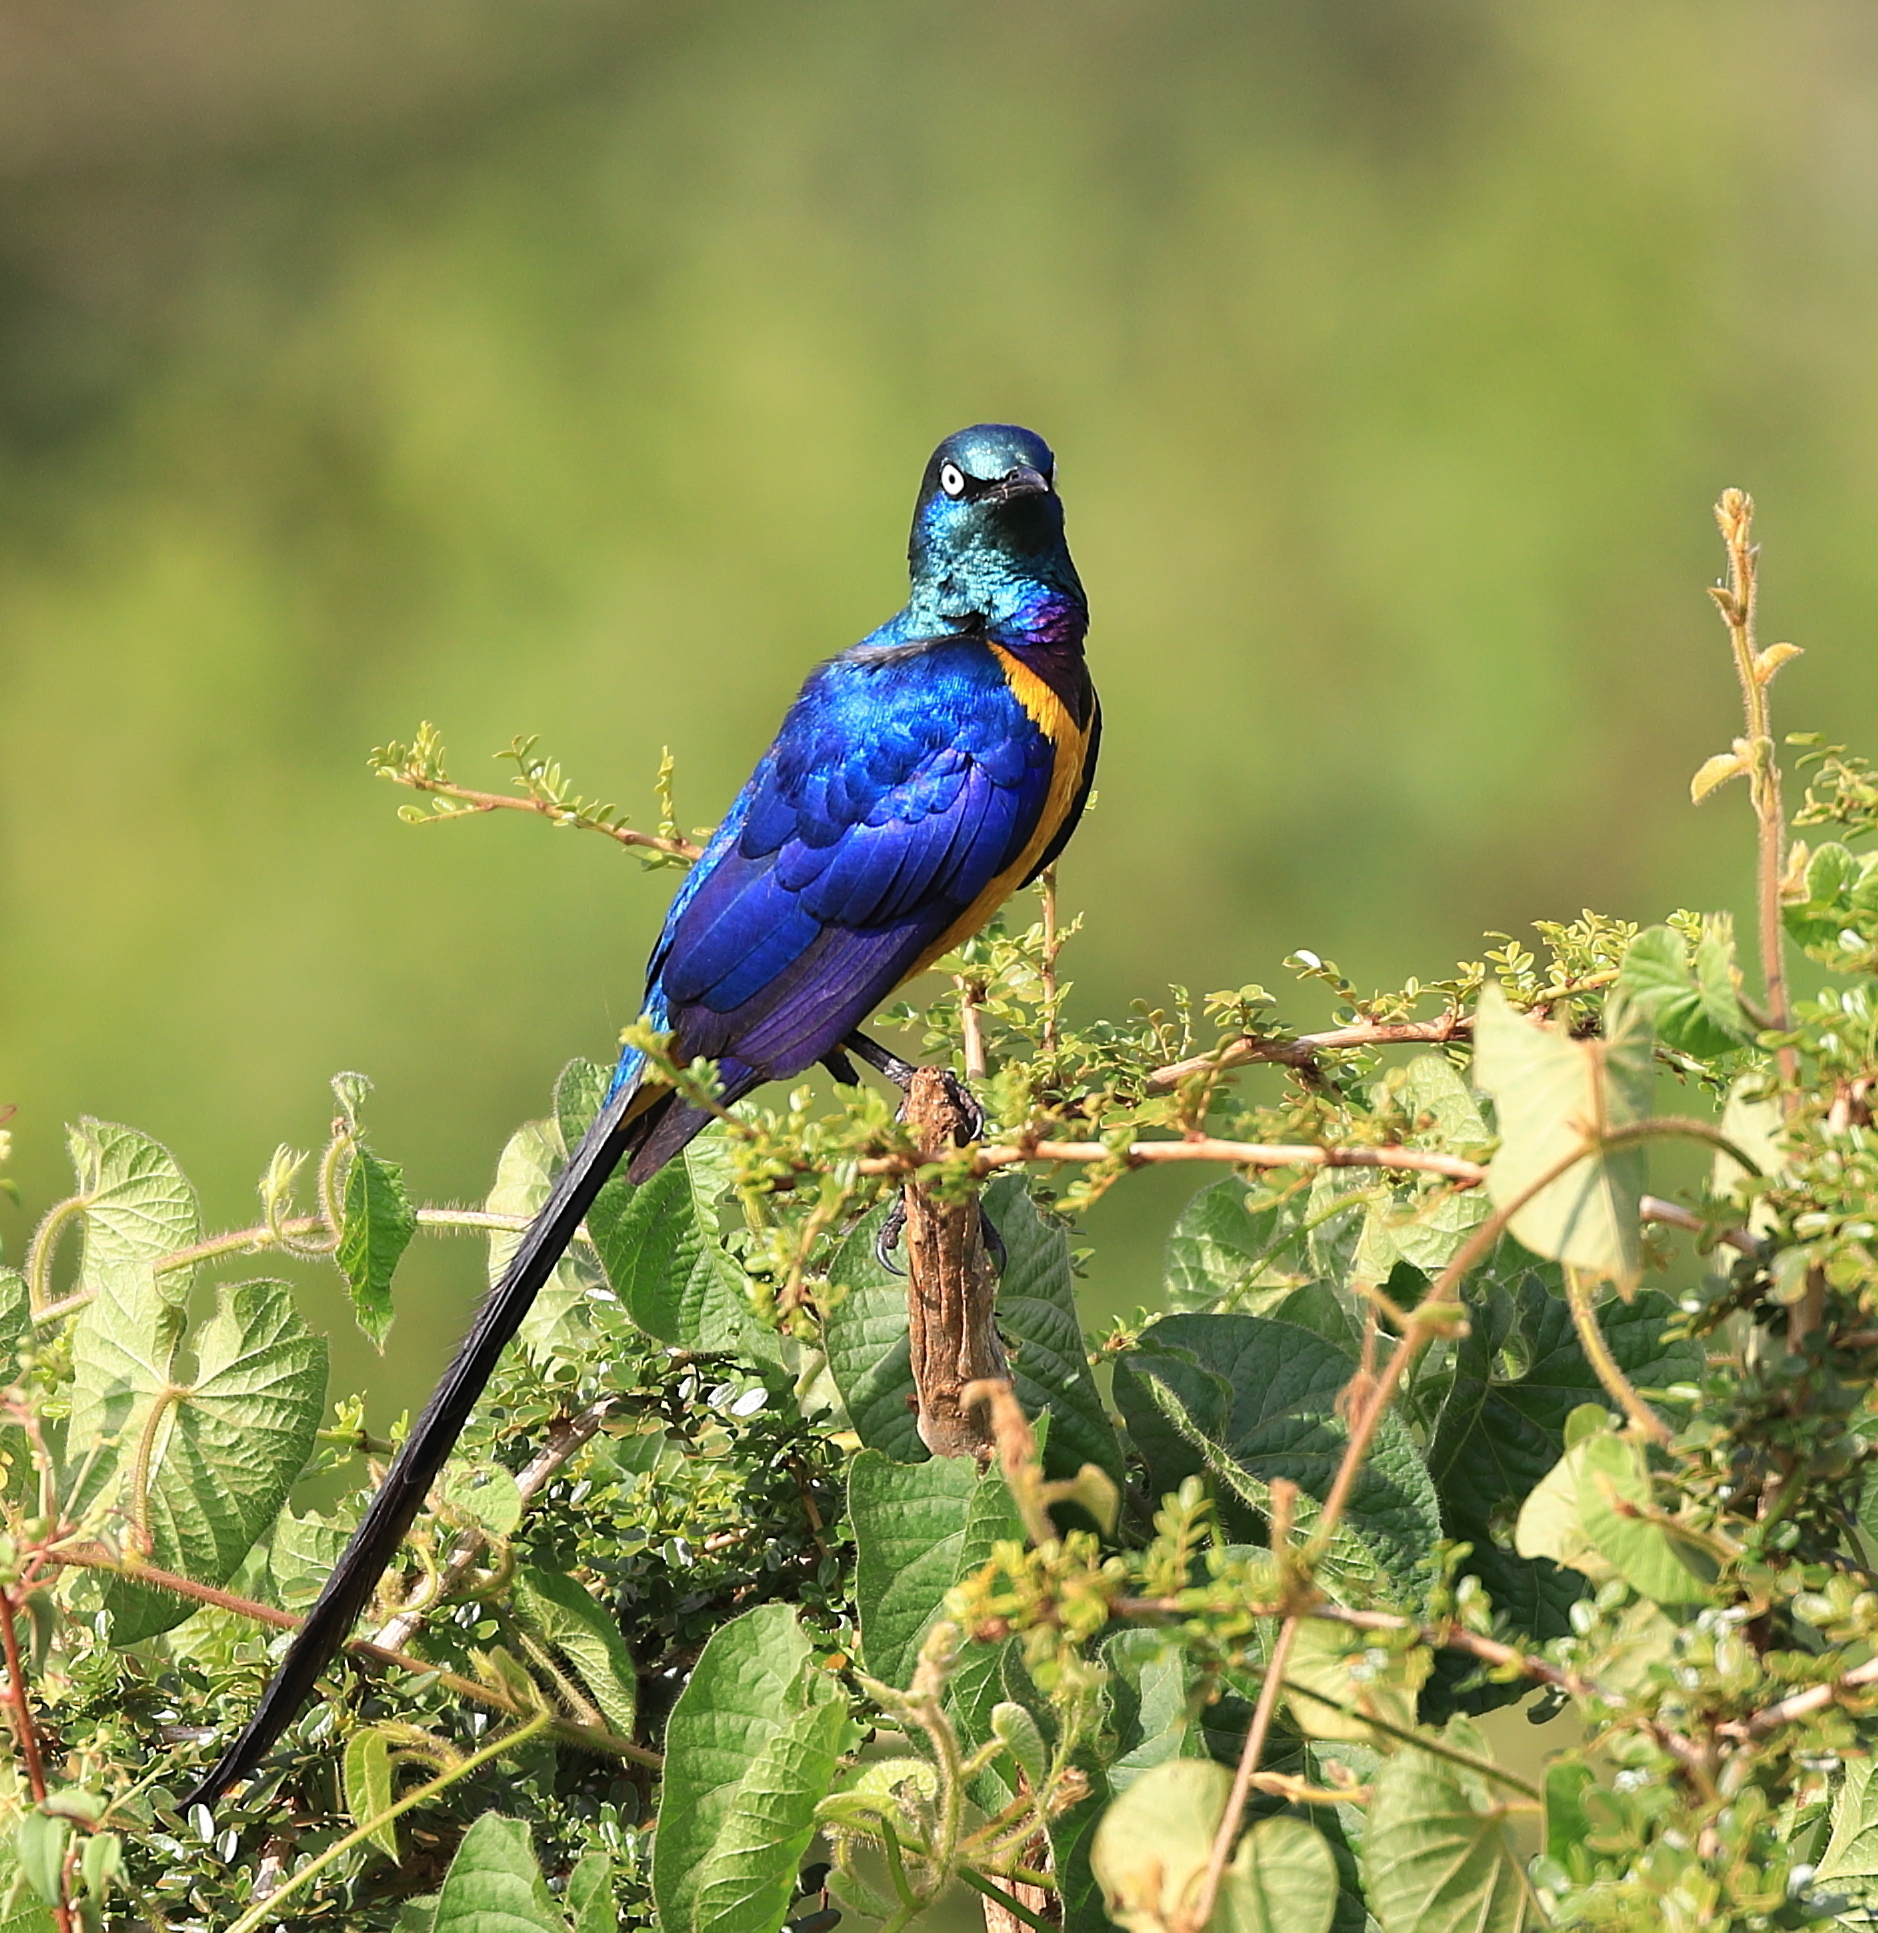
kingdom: Animalia
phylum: Chordata
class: Aves
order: Passeriformes
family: Sturnidae
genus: Lamprotornis
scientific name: Lamprotornis regius
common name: Golden-breasted starling
